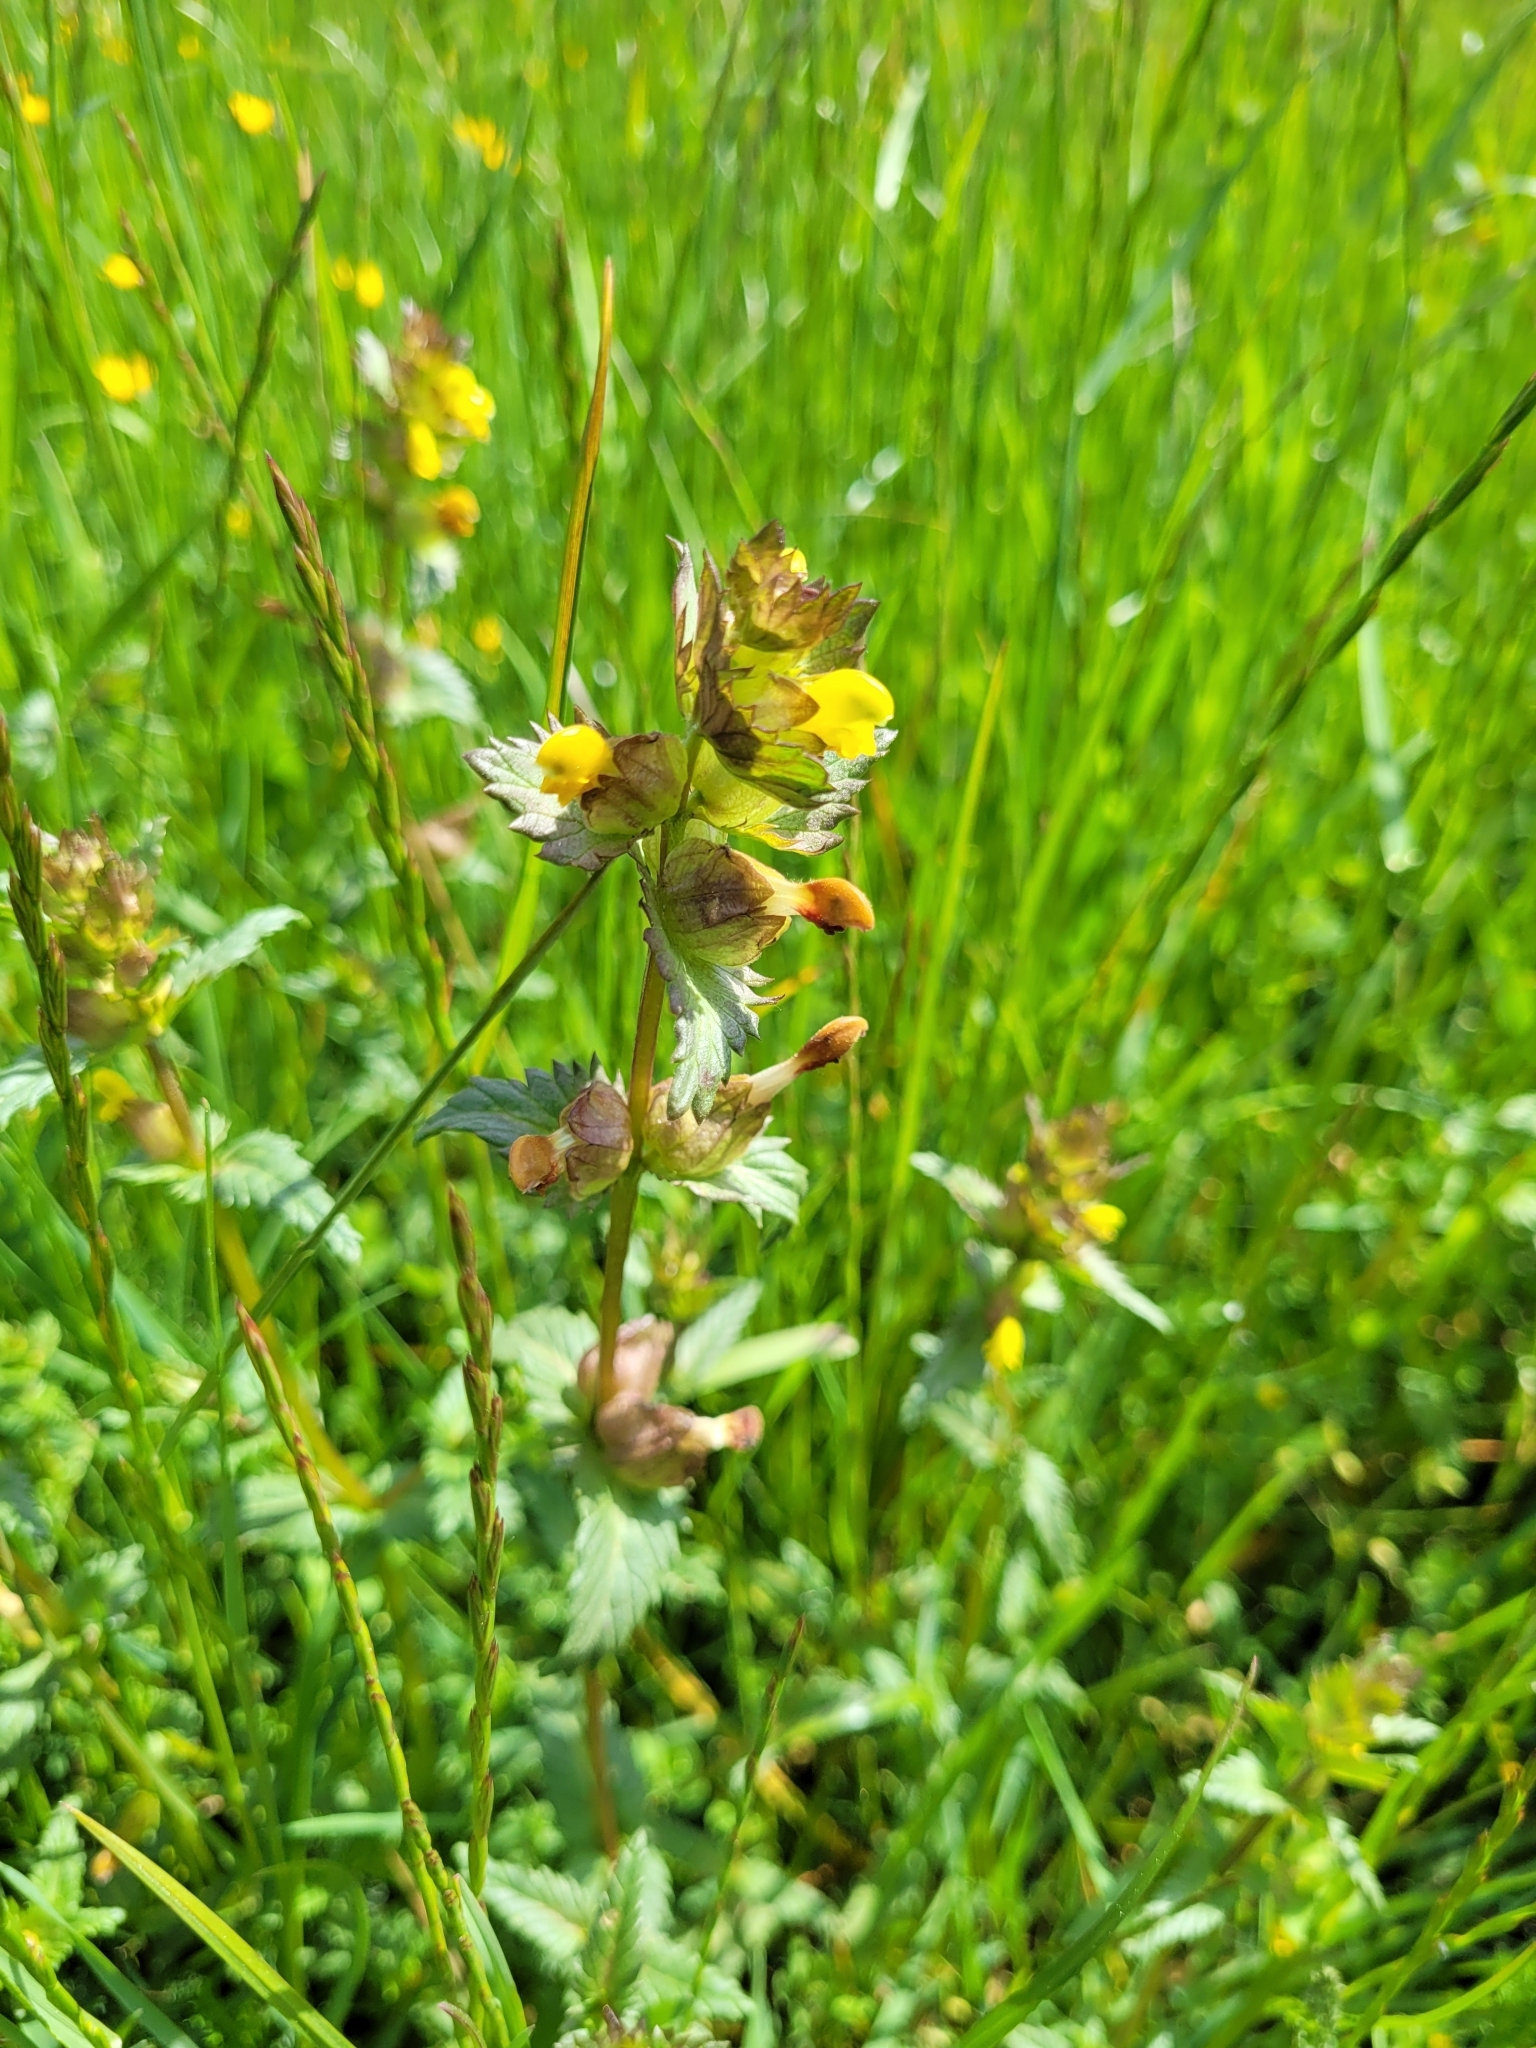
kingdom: Plantae
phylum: Tracheophyta
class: Magnoliopsida
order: Lamiales
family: Orobanchaceae
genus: Rhinanthus
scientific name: Rhinanthus minor
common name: Yellow-rattle
